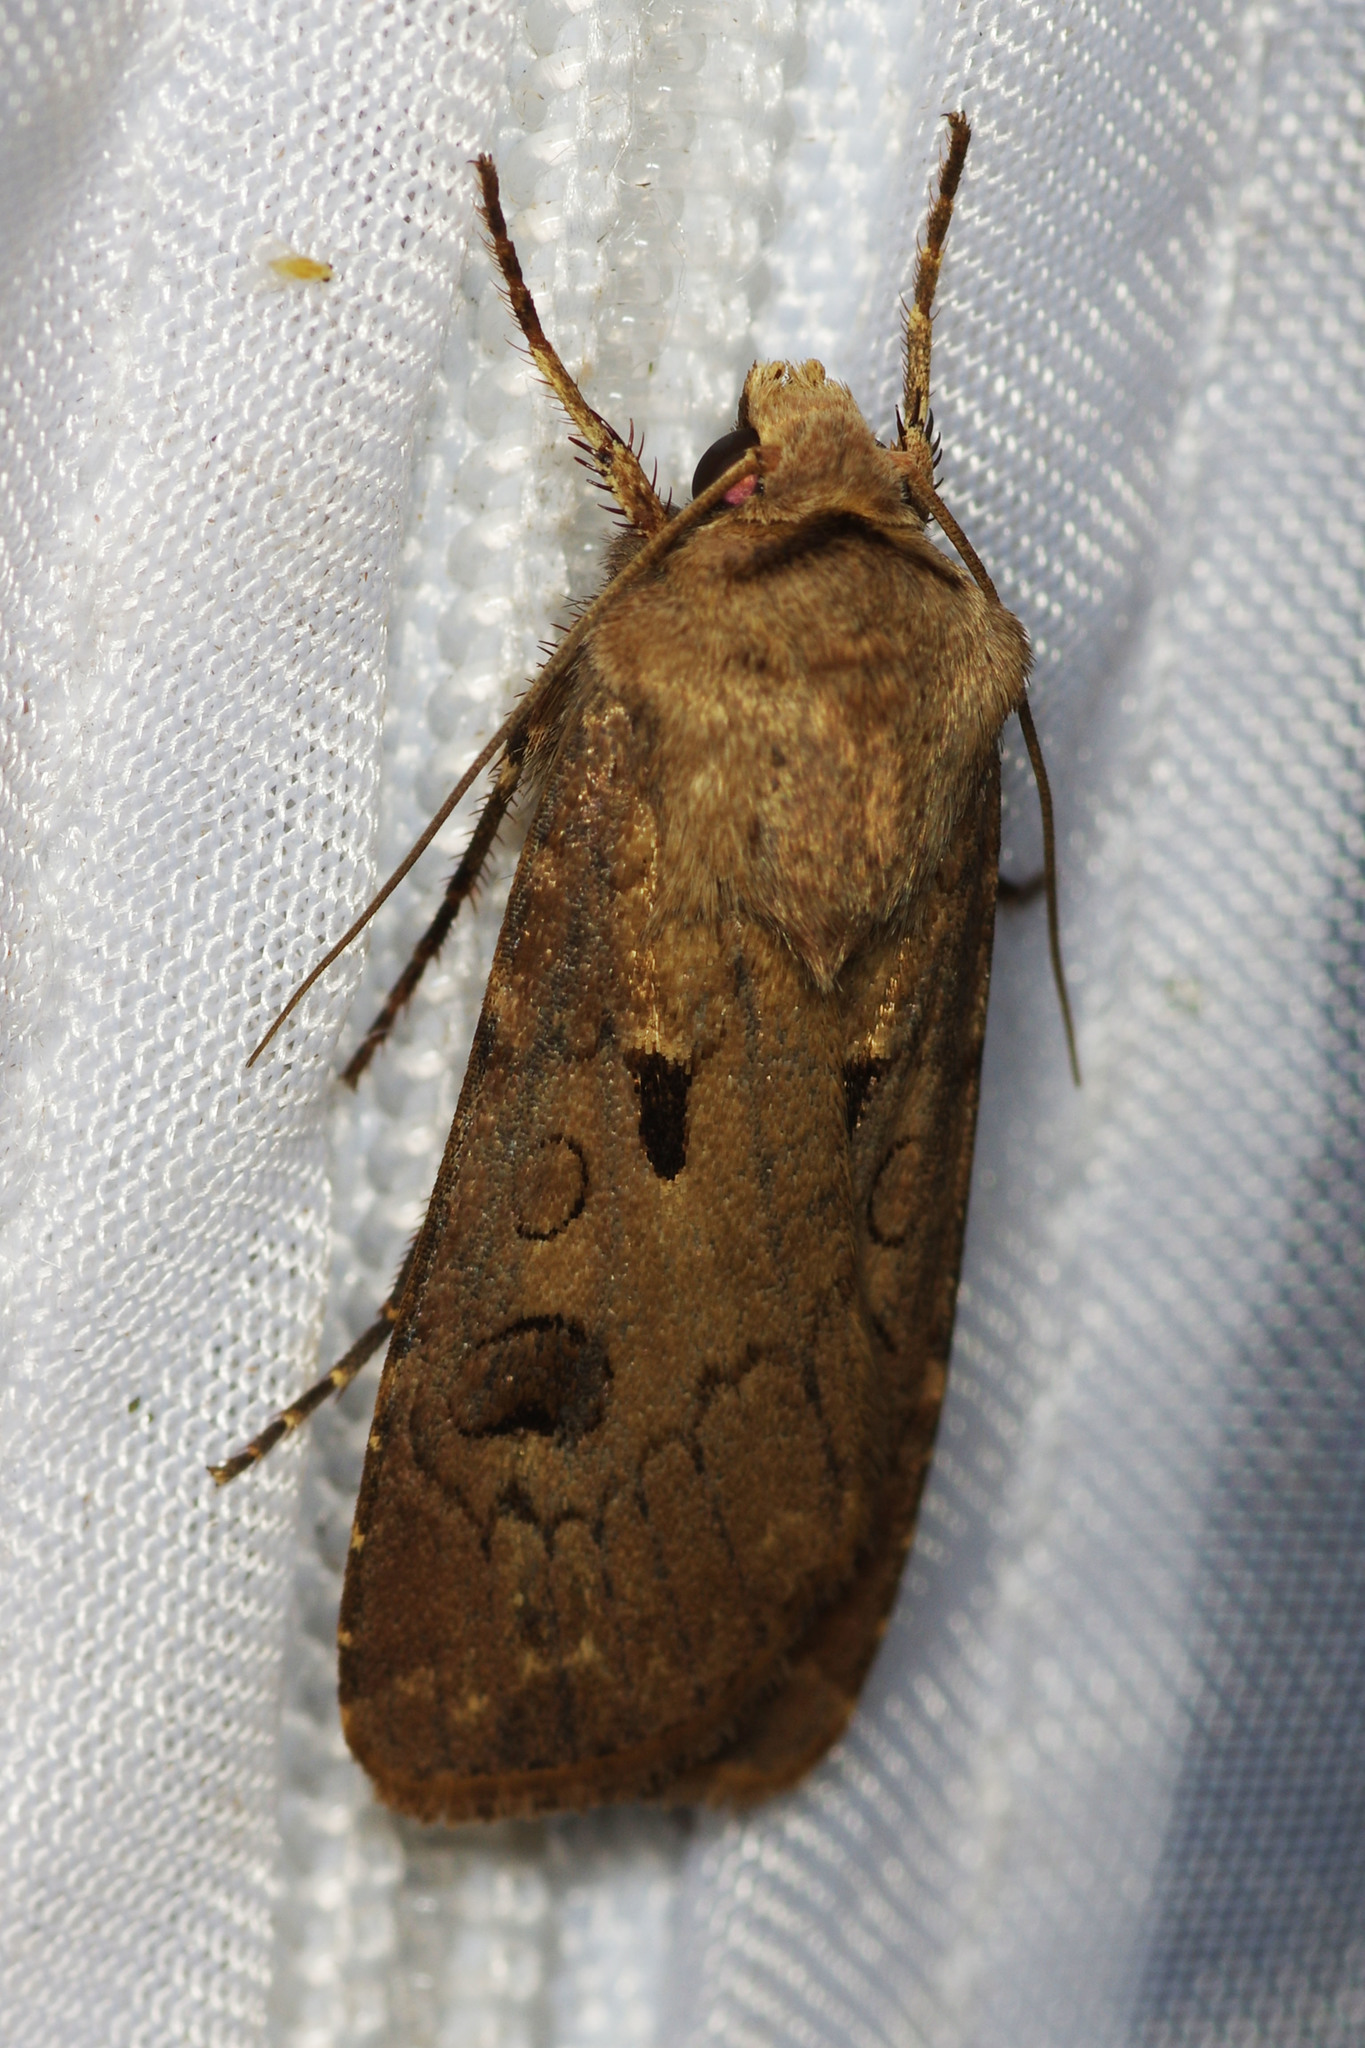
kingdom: Animalia
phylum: Arthropoda
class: Insecta
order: Lepidoptera
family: Noctuidae
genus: Agrotis
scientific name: Agrotis exclamationis
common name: Heart and dart
